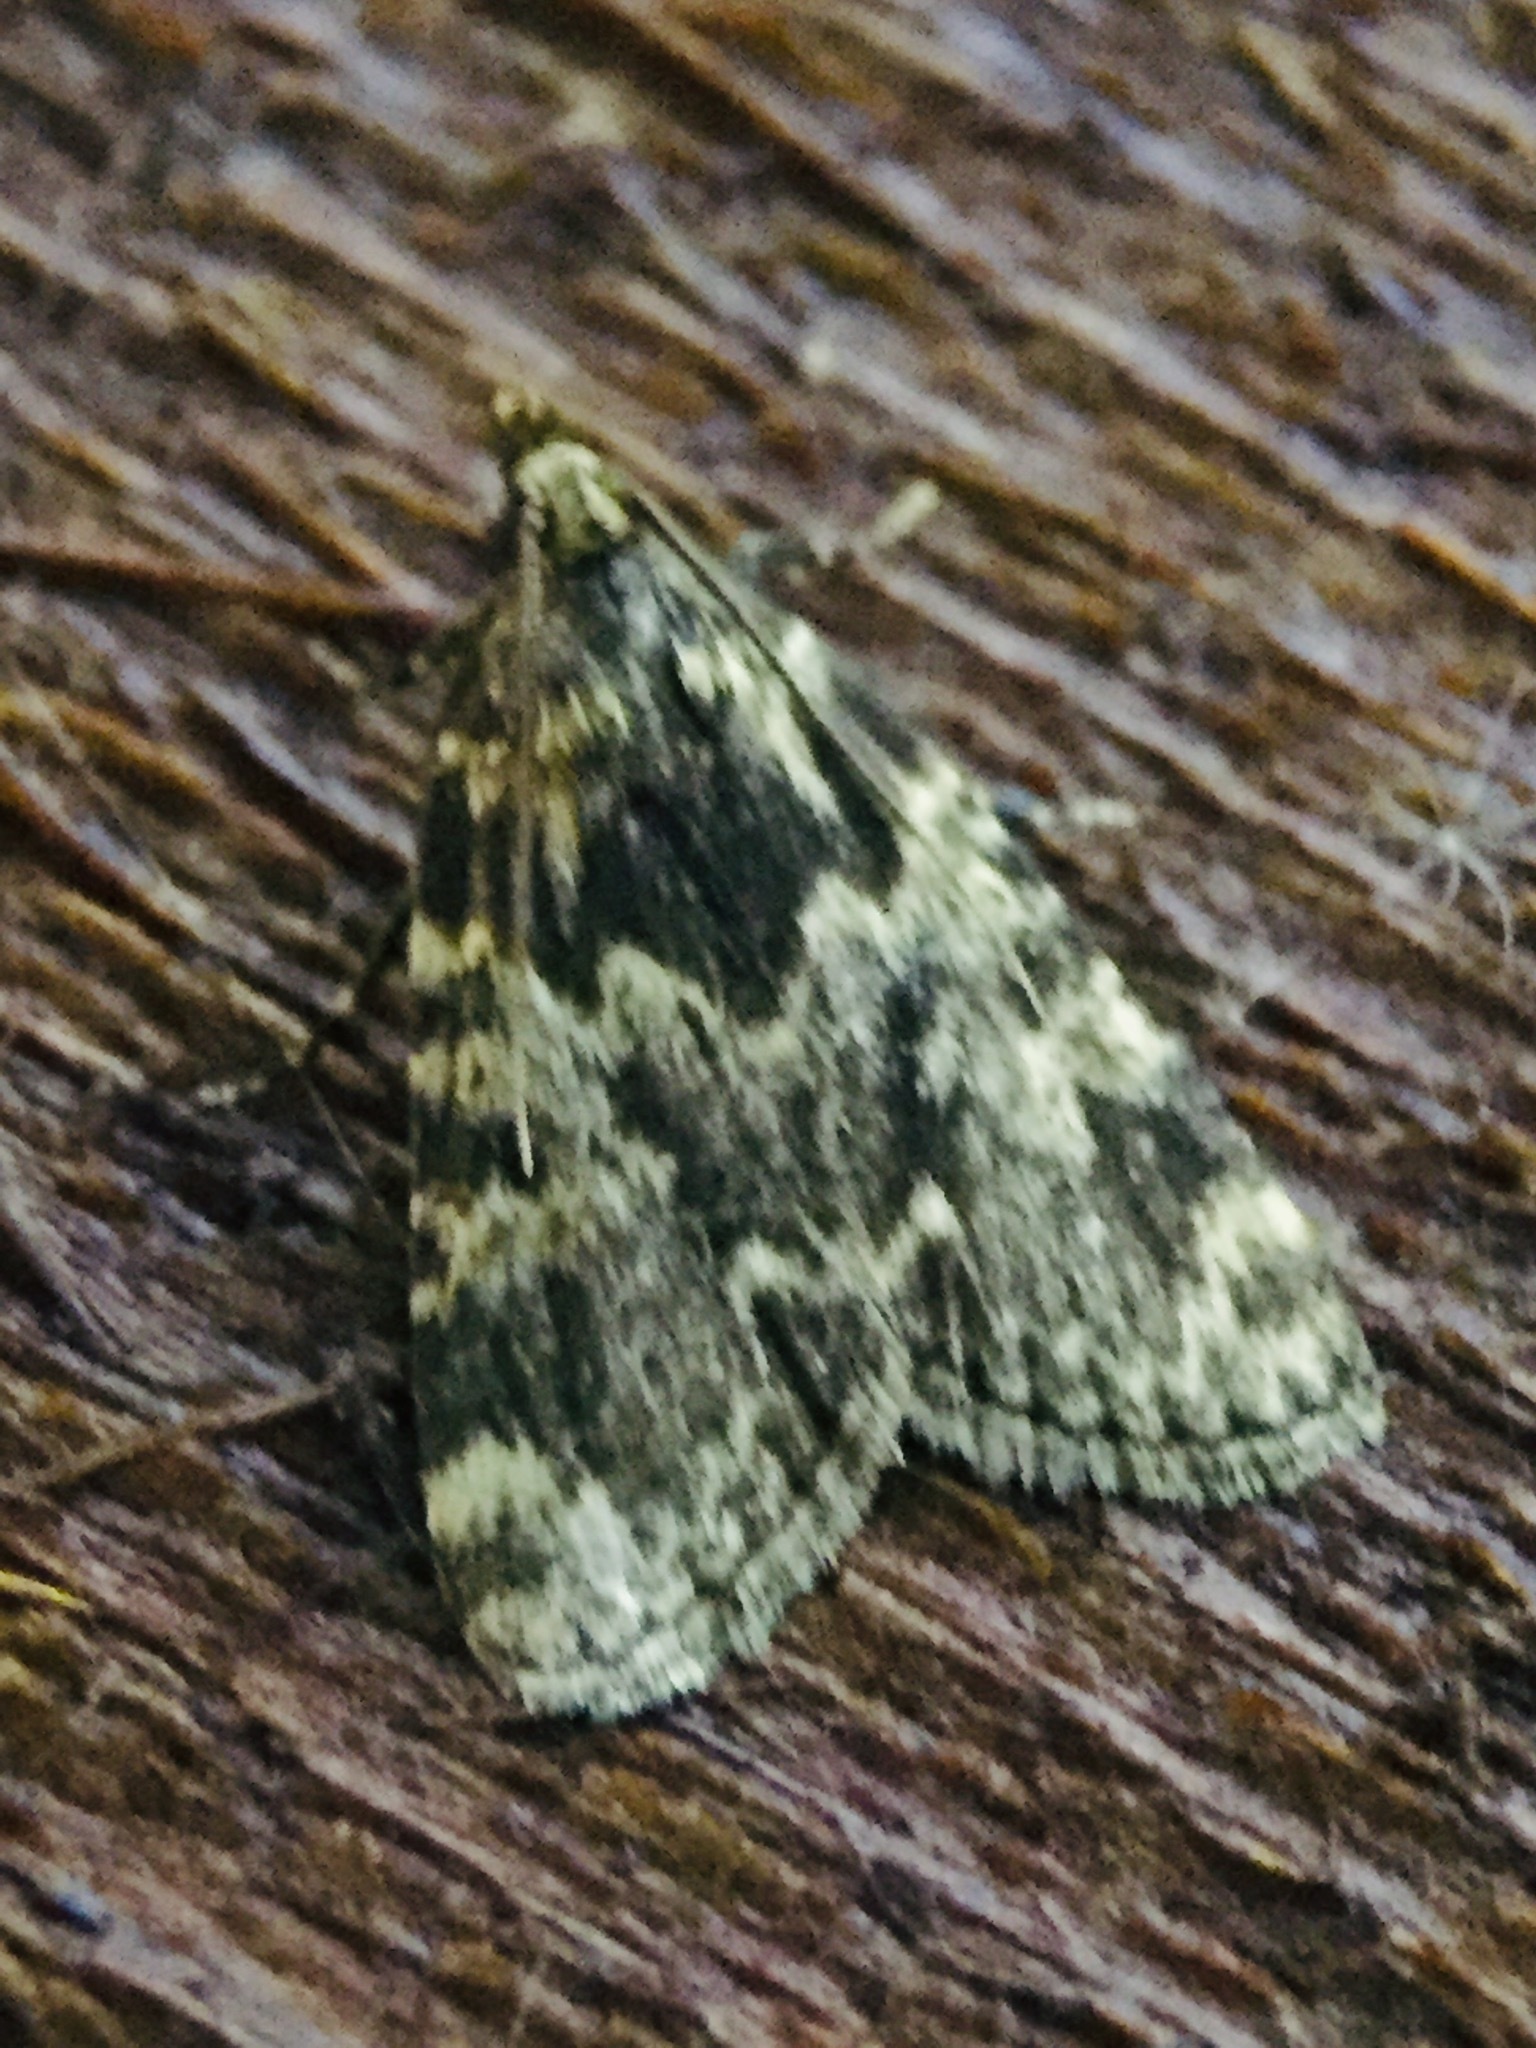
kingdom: Animalia
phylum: Arthropoda
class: Insecta
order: Lepidoptera
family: Pyralidae
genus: Aglossa
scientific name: Aglossa caprealis
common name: Small tabby
